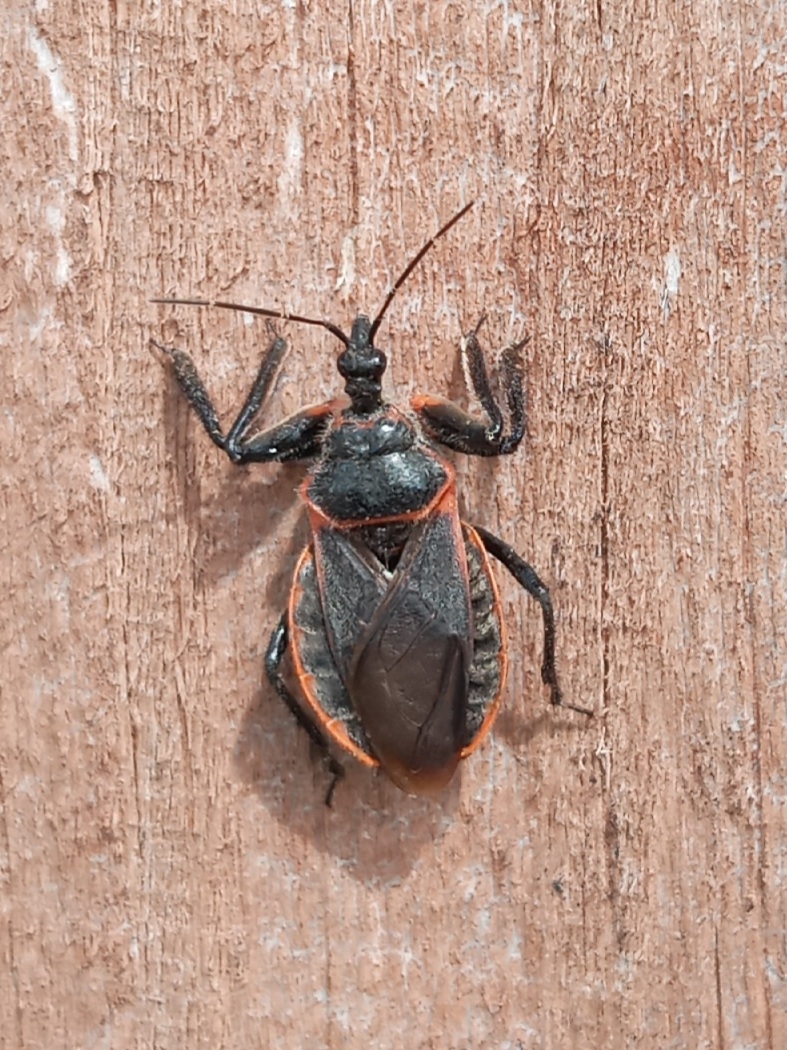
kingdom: Animalia
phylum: Arthropoda
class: Insecta
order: Hemiptera
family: Reduviidae
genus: Apiomerus
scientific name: Apiomerus crassipes
